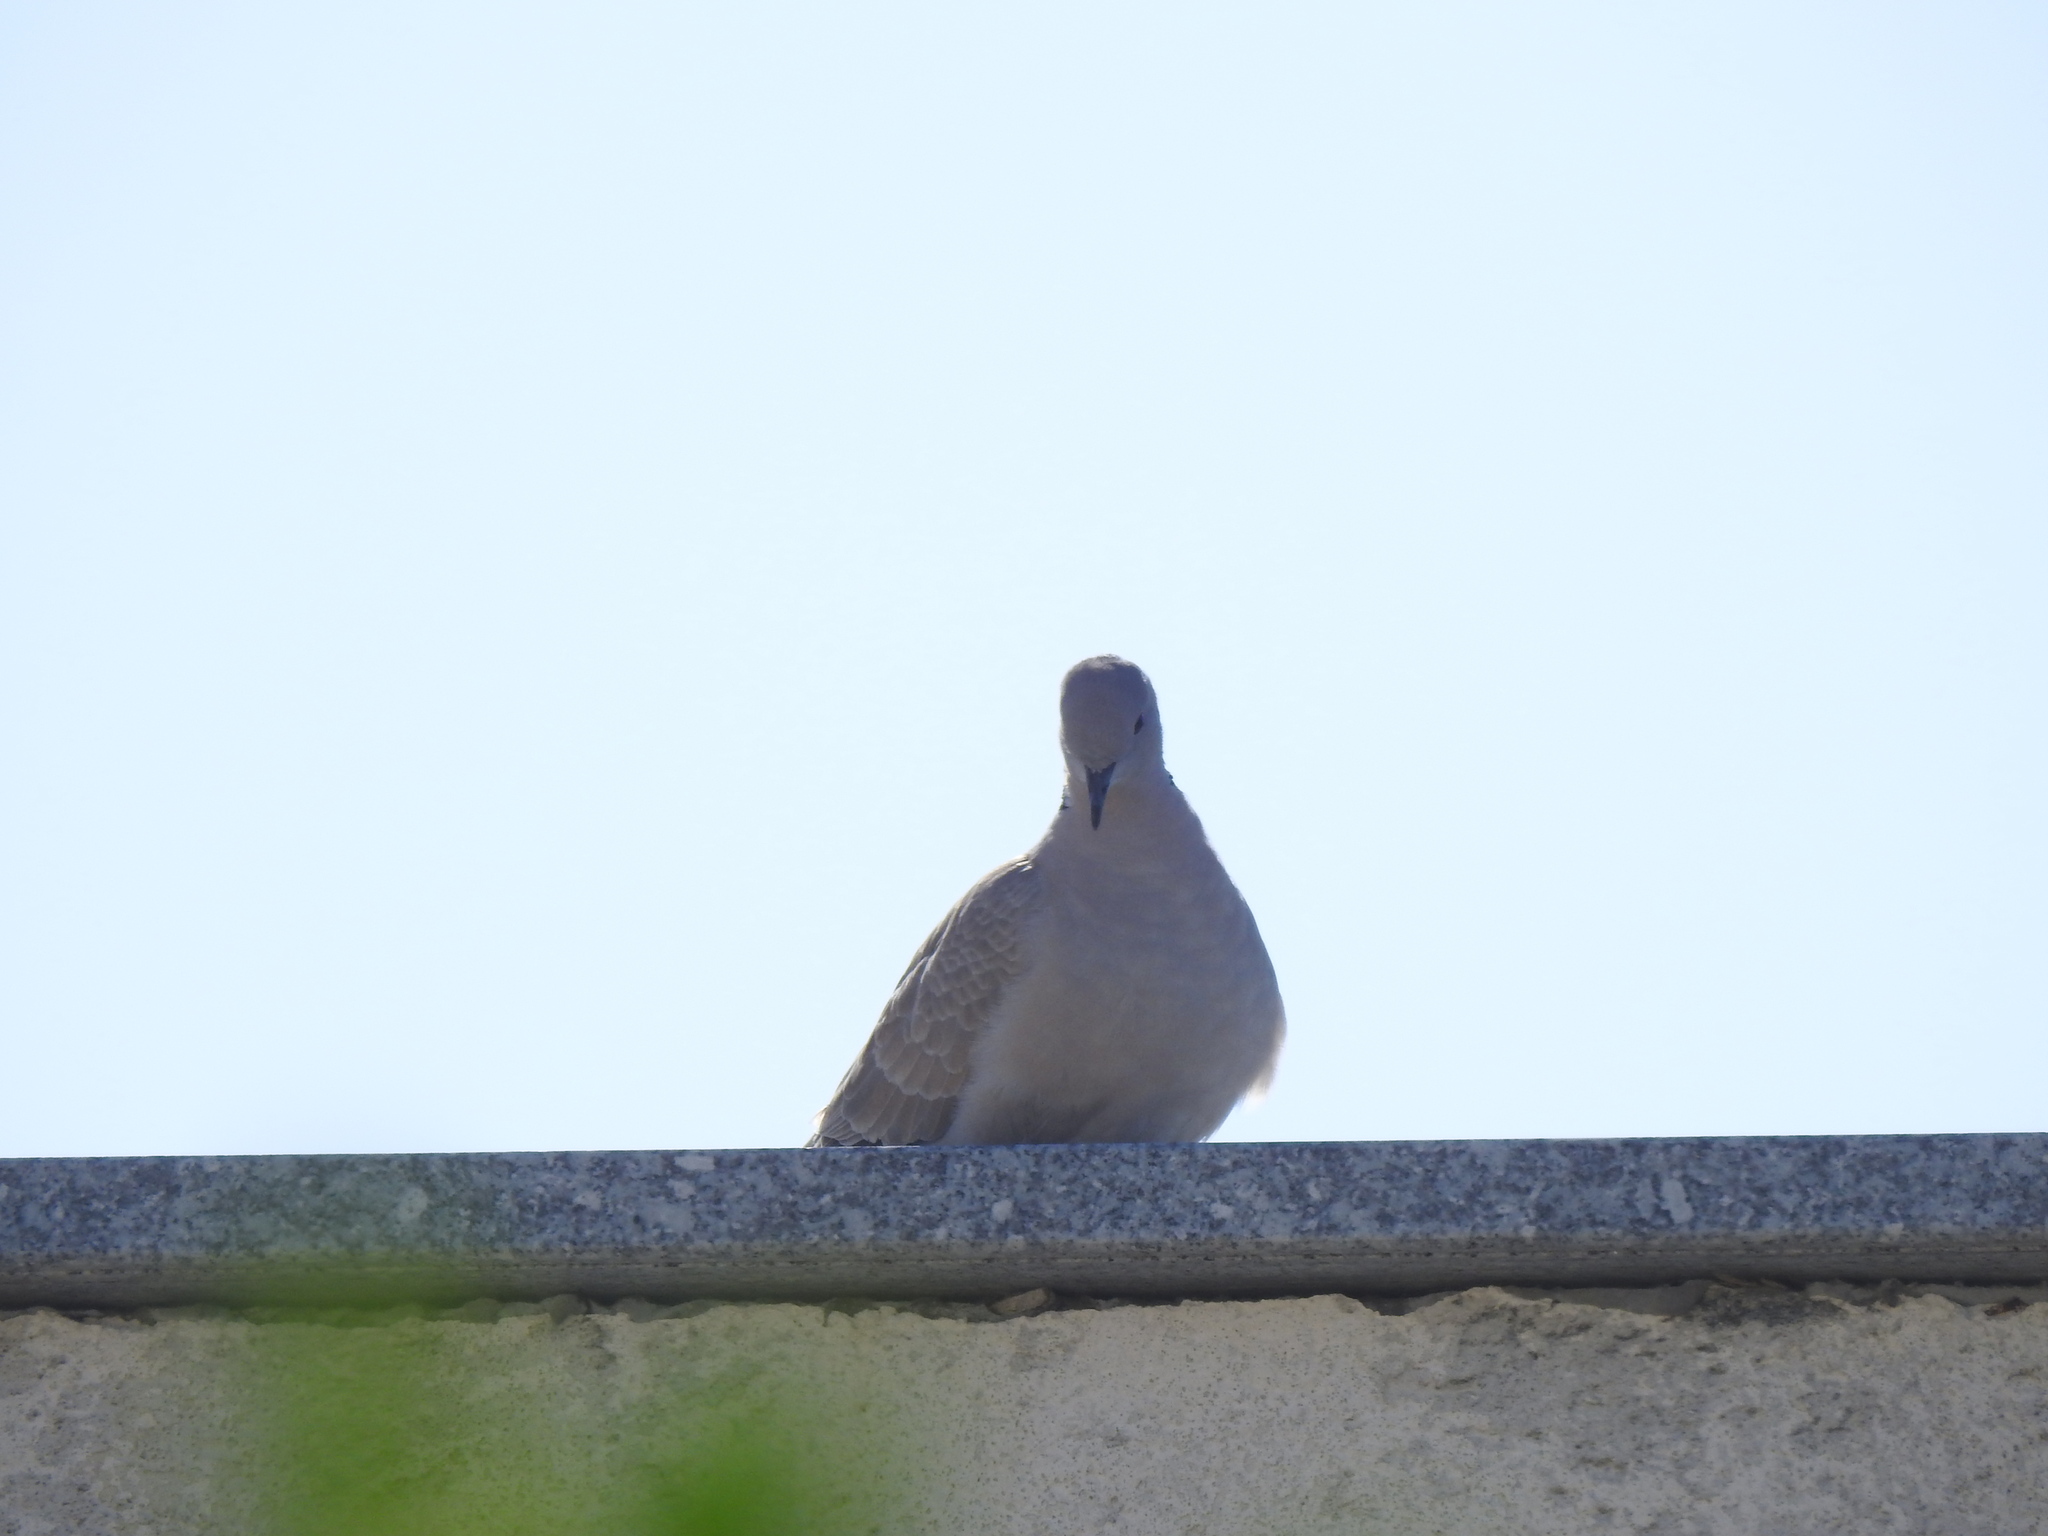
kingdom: Animalia
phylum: Chordata
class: Aves
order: Columbiformes
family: Columbidae
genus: Streptopelia
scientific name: Streptopelia decaocto
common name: Eurasian collared dove
